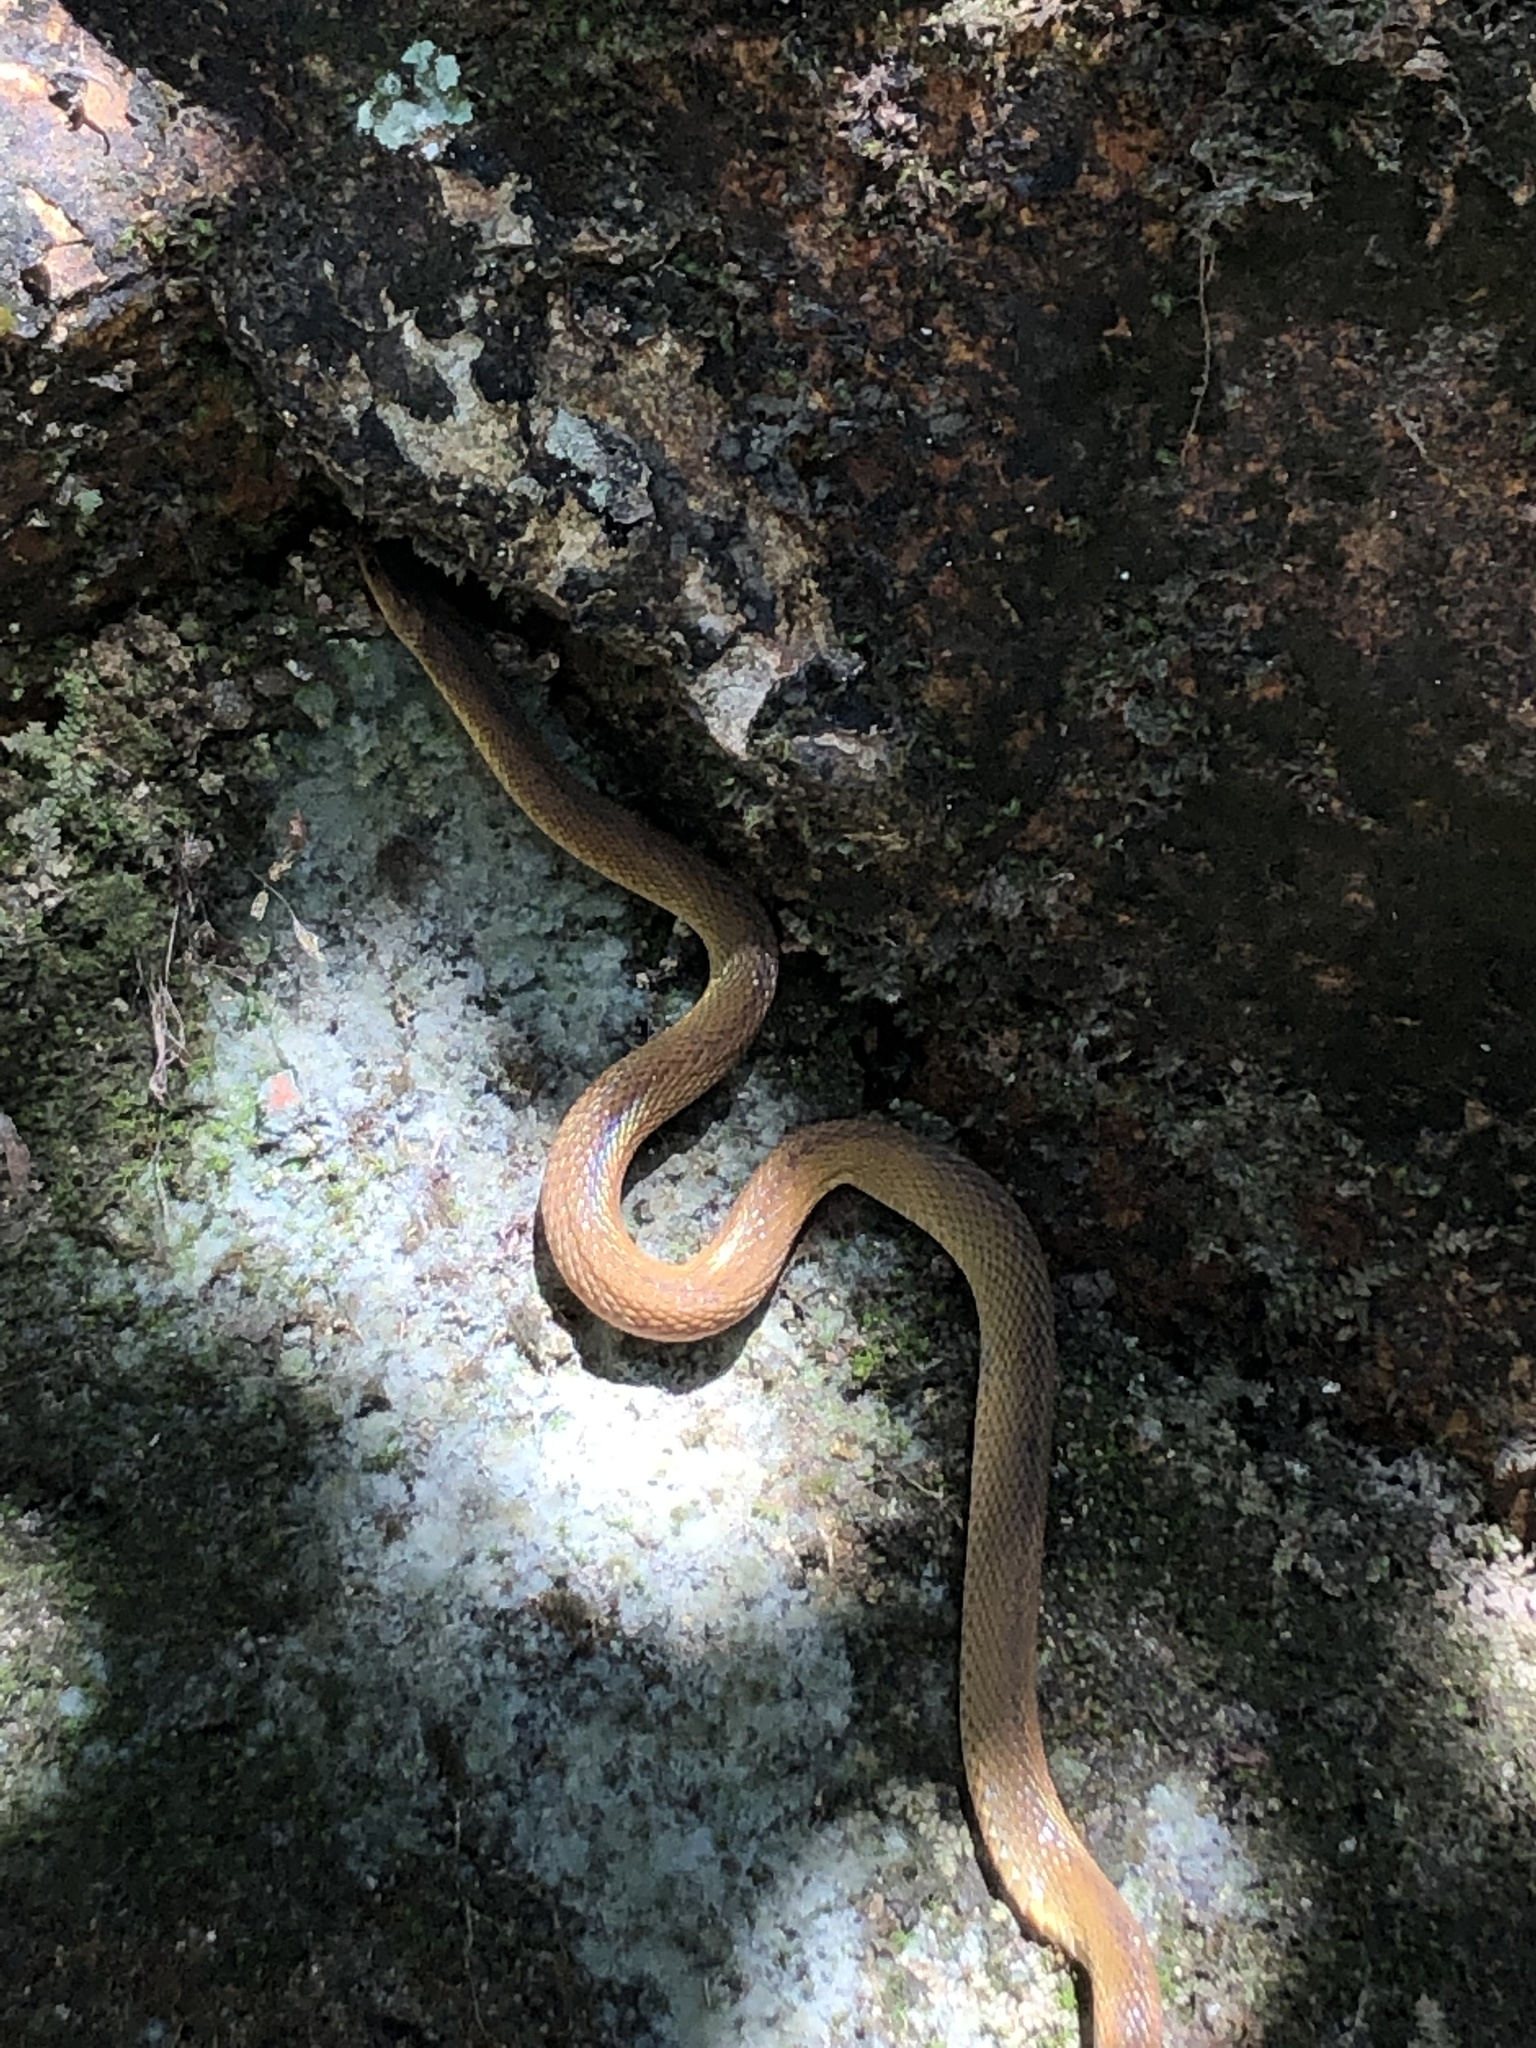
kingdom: Animalia
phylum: Chordata
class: Squamata
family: Xenodermidae
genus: Achalinus
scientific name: Achalinus rufescens
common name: Rufous burrowing snake
